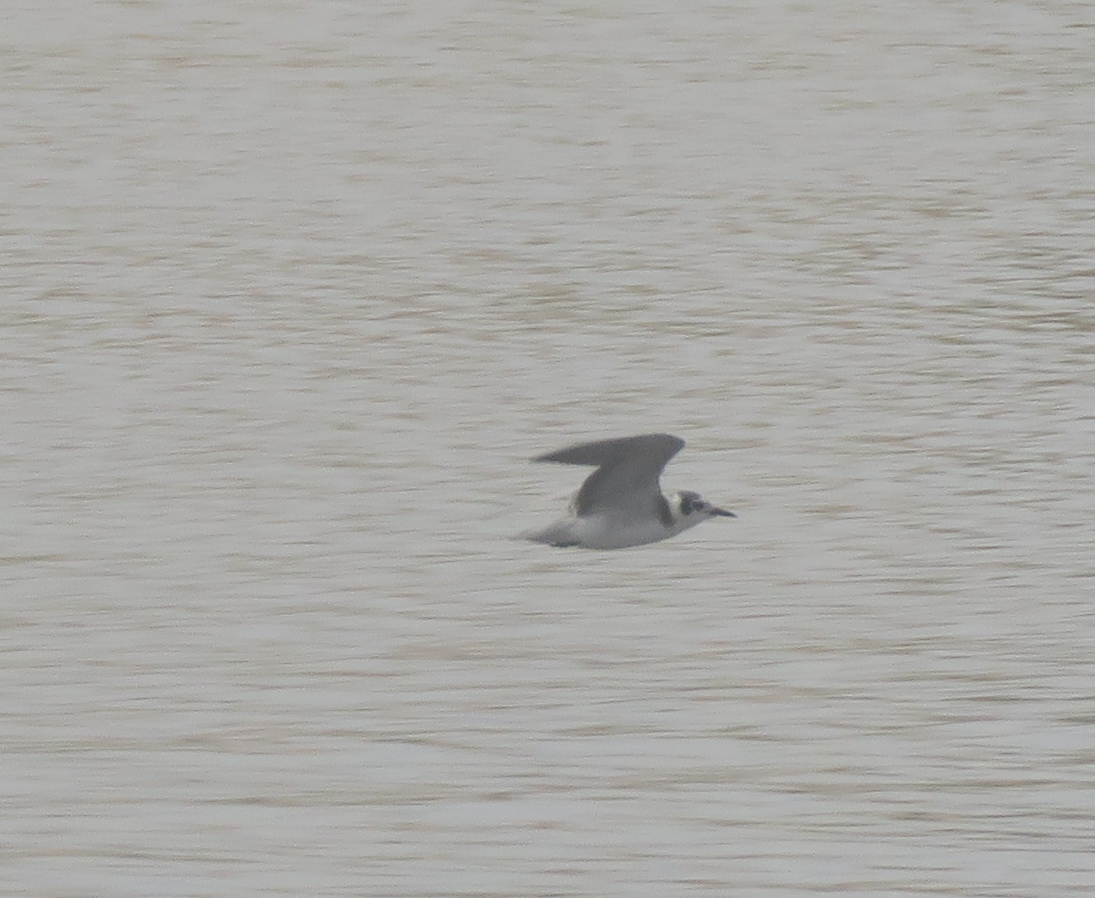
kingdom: Animalia
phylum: Chordata
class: Aves
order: Charadriiformes
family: Laridae
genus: Chlidonias
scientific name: Chlidonias niger
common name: Black tern
